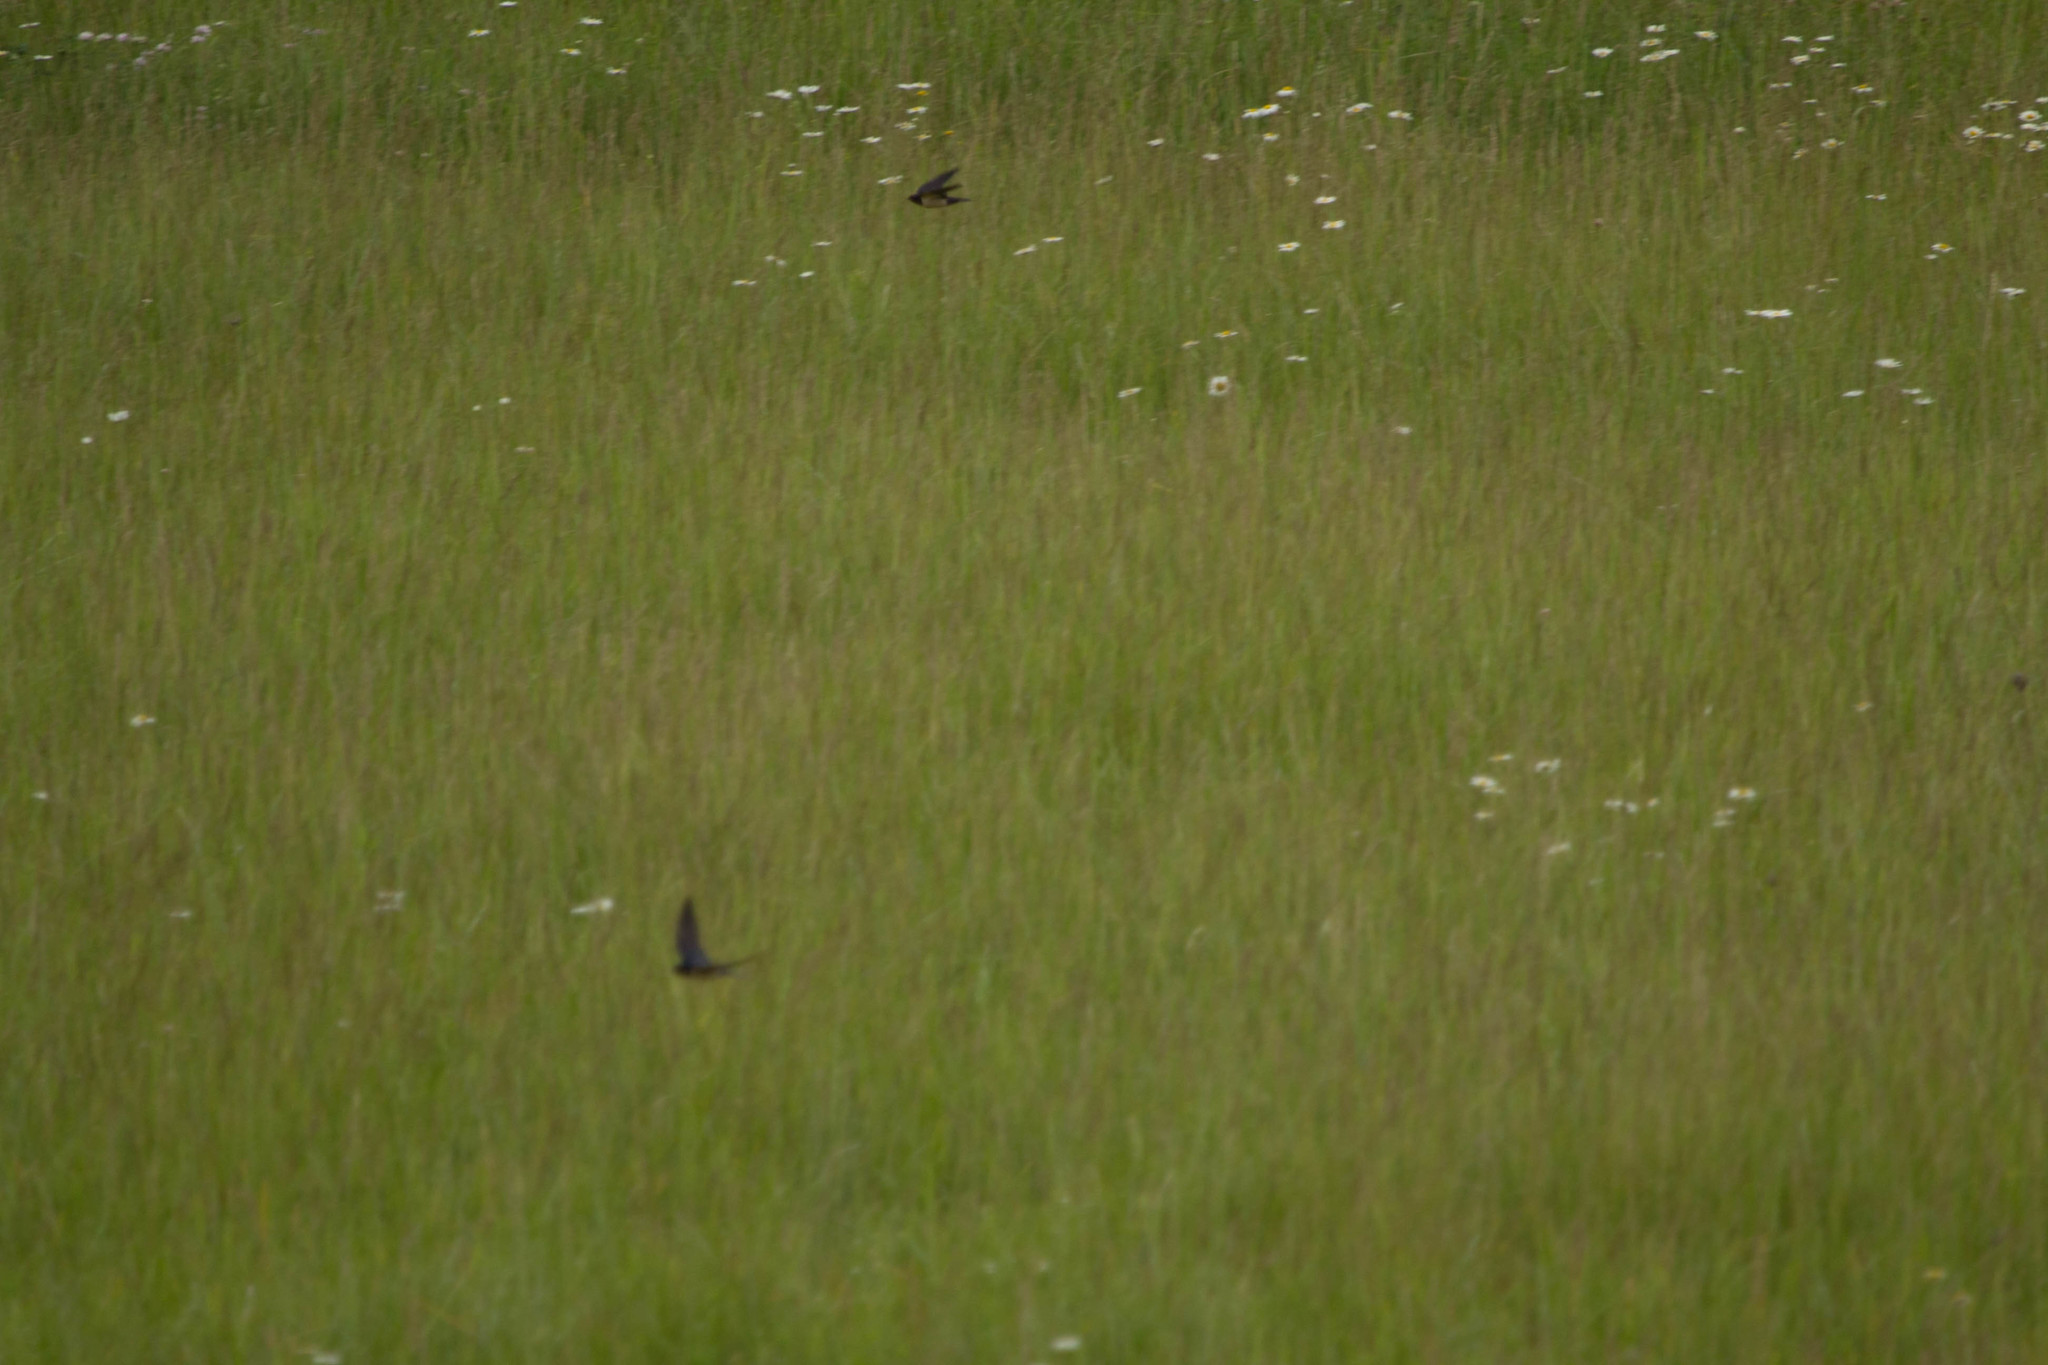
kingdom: Animalia
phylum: Chordata
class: Aves
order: Passeriformes
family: Hirundinidae
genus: Hirundo
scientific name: Hirundo rustica
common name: Barn swallow
